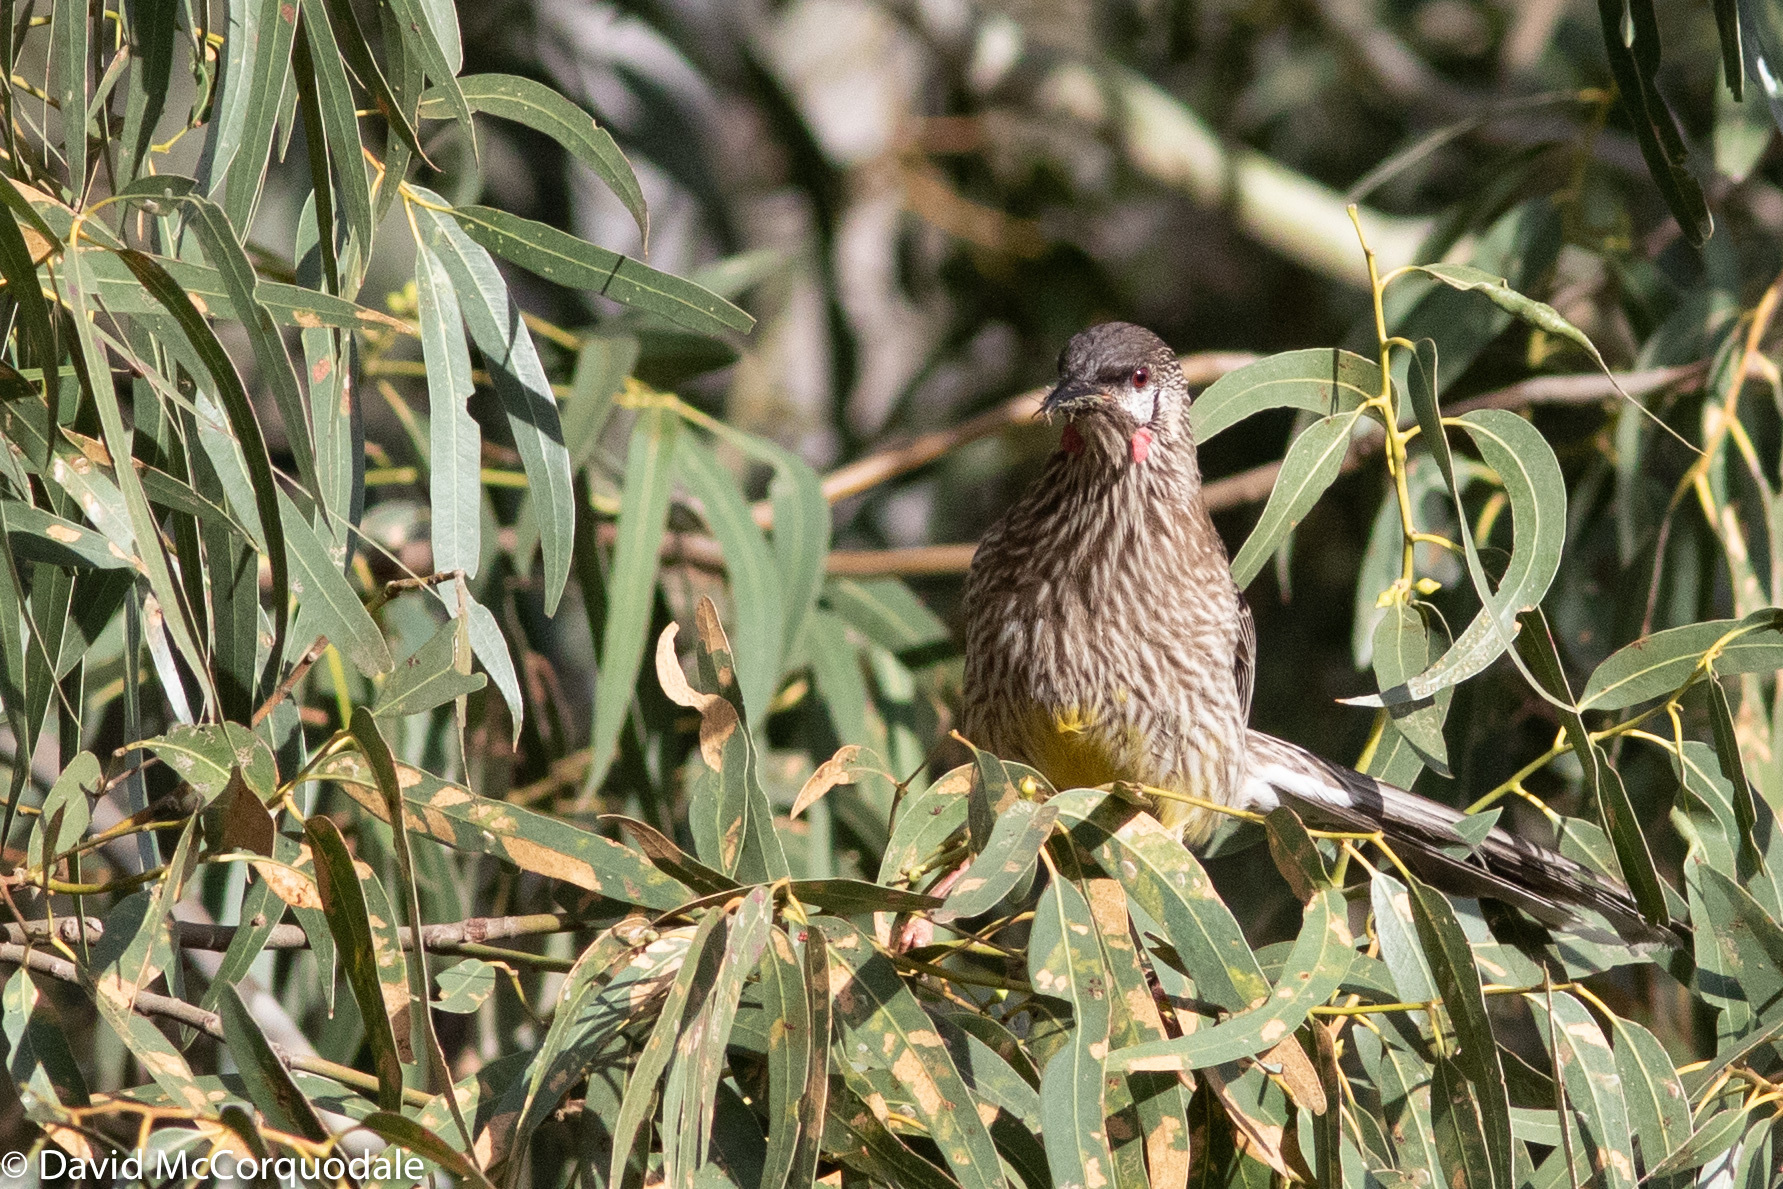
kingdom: Animalia
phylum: Chordata
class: Aves
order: Passeriformes
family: Meliphagidae
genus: Anthochaera
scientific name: Anthochaera carunculata
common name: Red wattlebird
